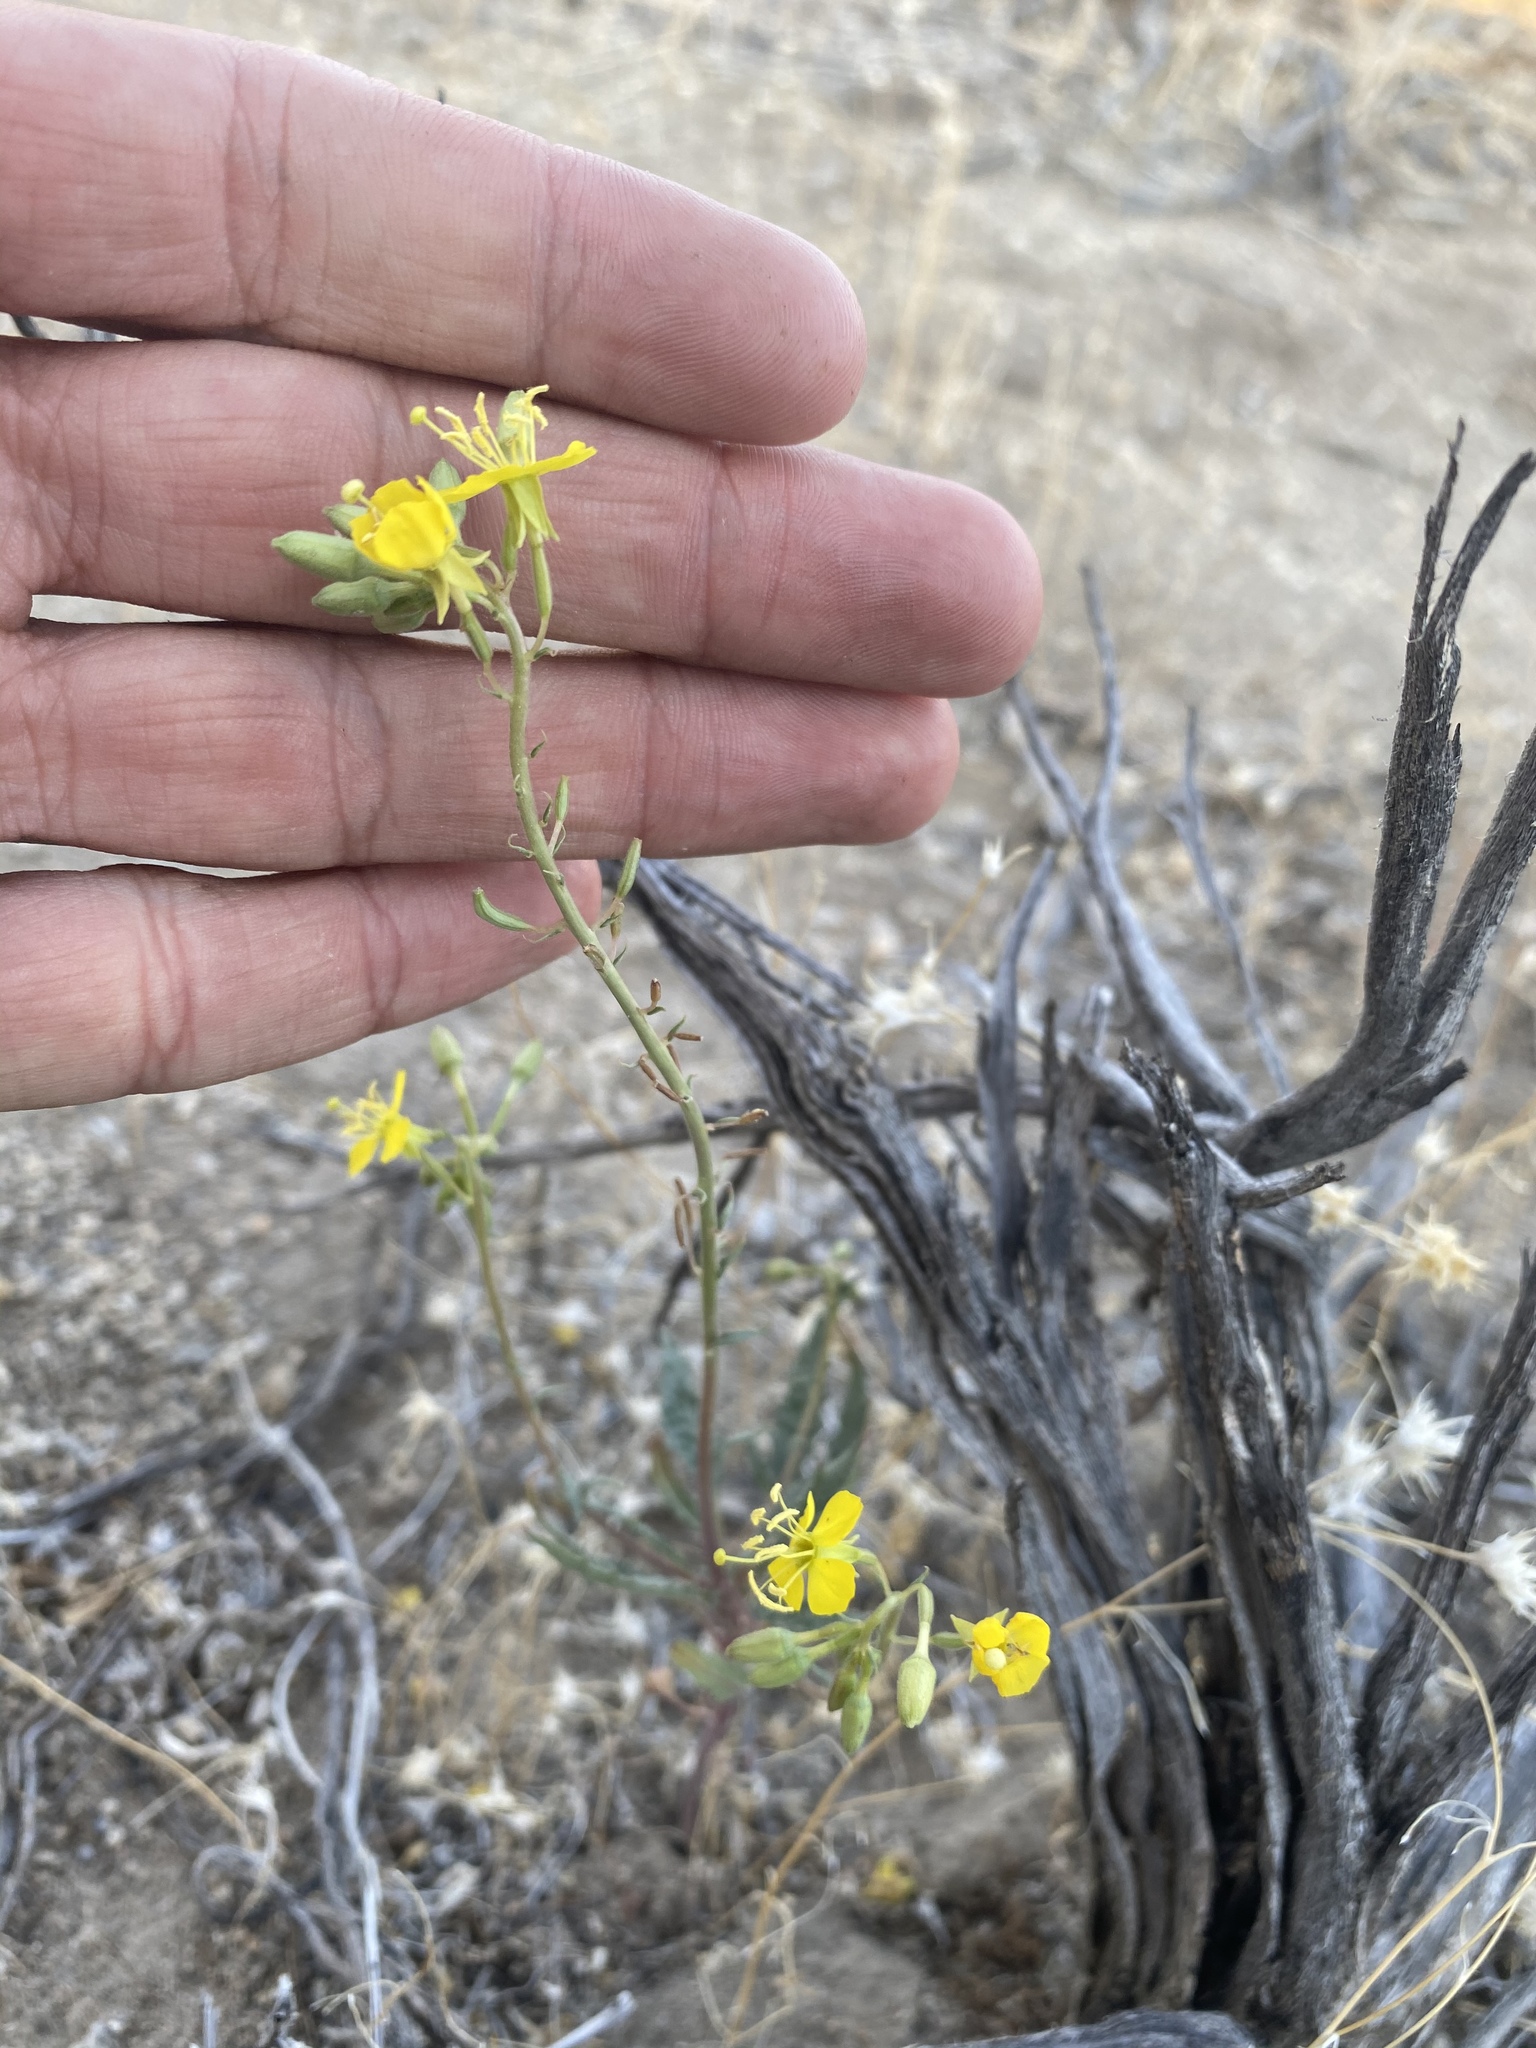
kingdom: Plantae
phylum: Tracheophyta
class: Magnoliopsida
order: Myrtales
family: Onagraceae
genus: Chylismia
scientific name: Chylismia claviformis
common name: Browneyes
